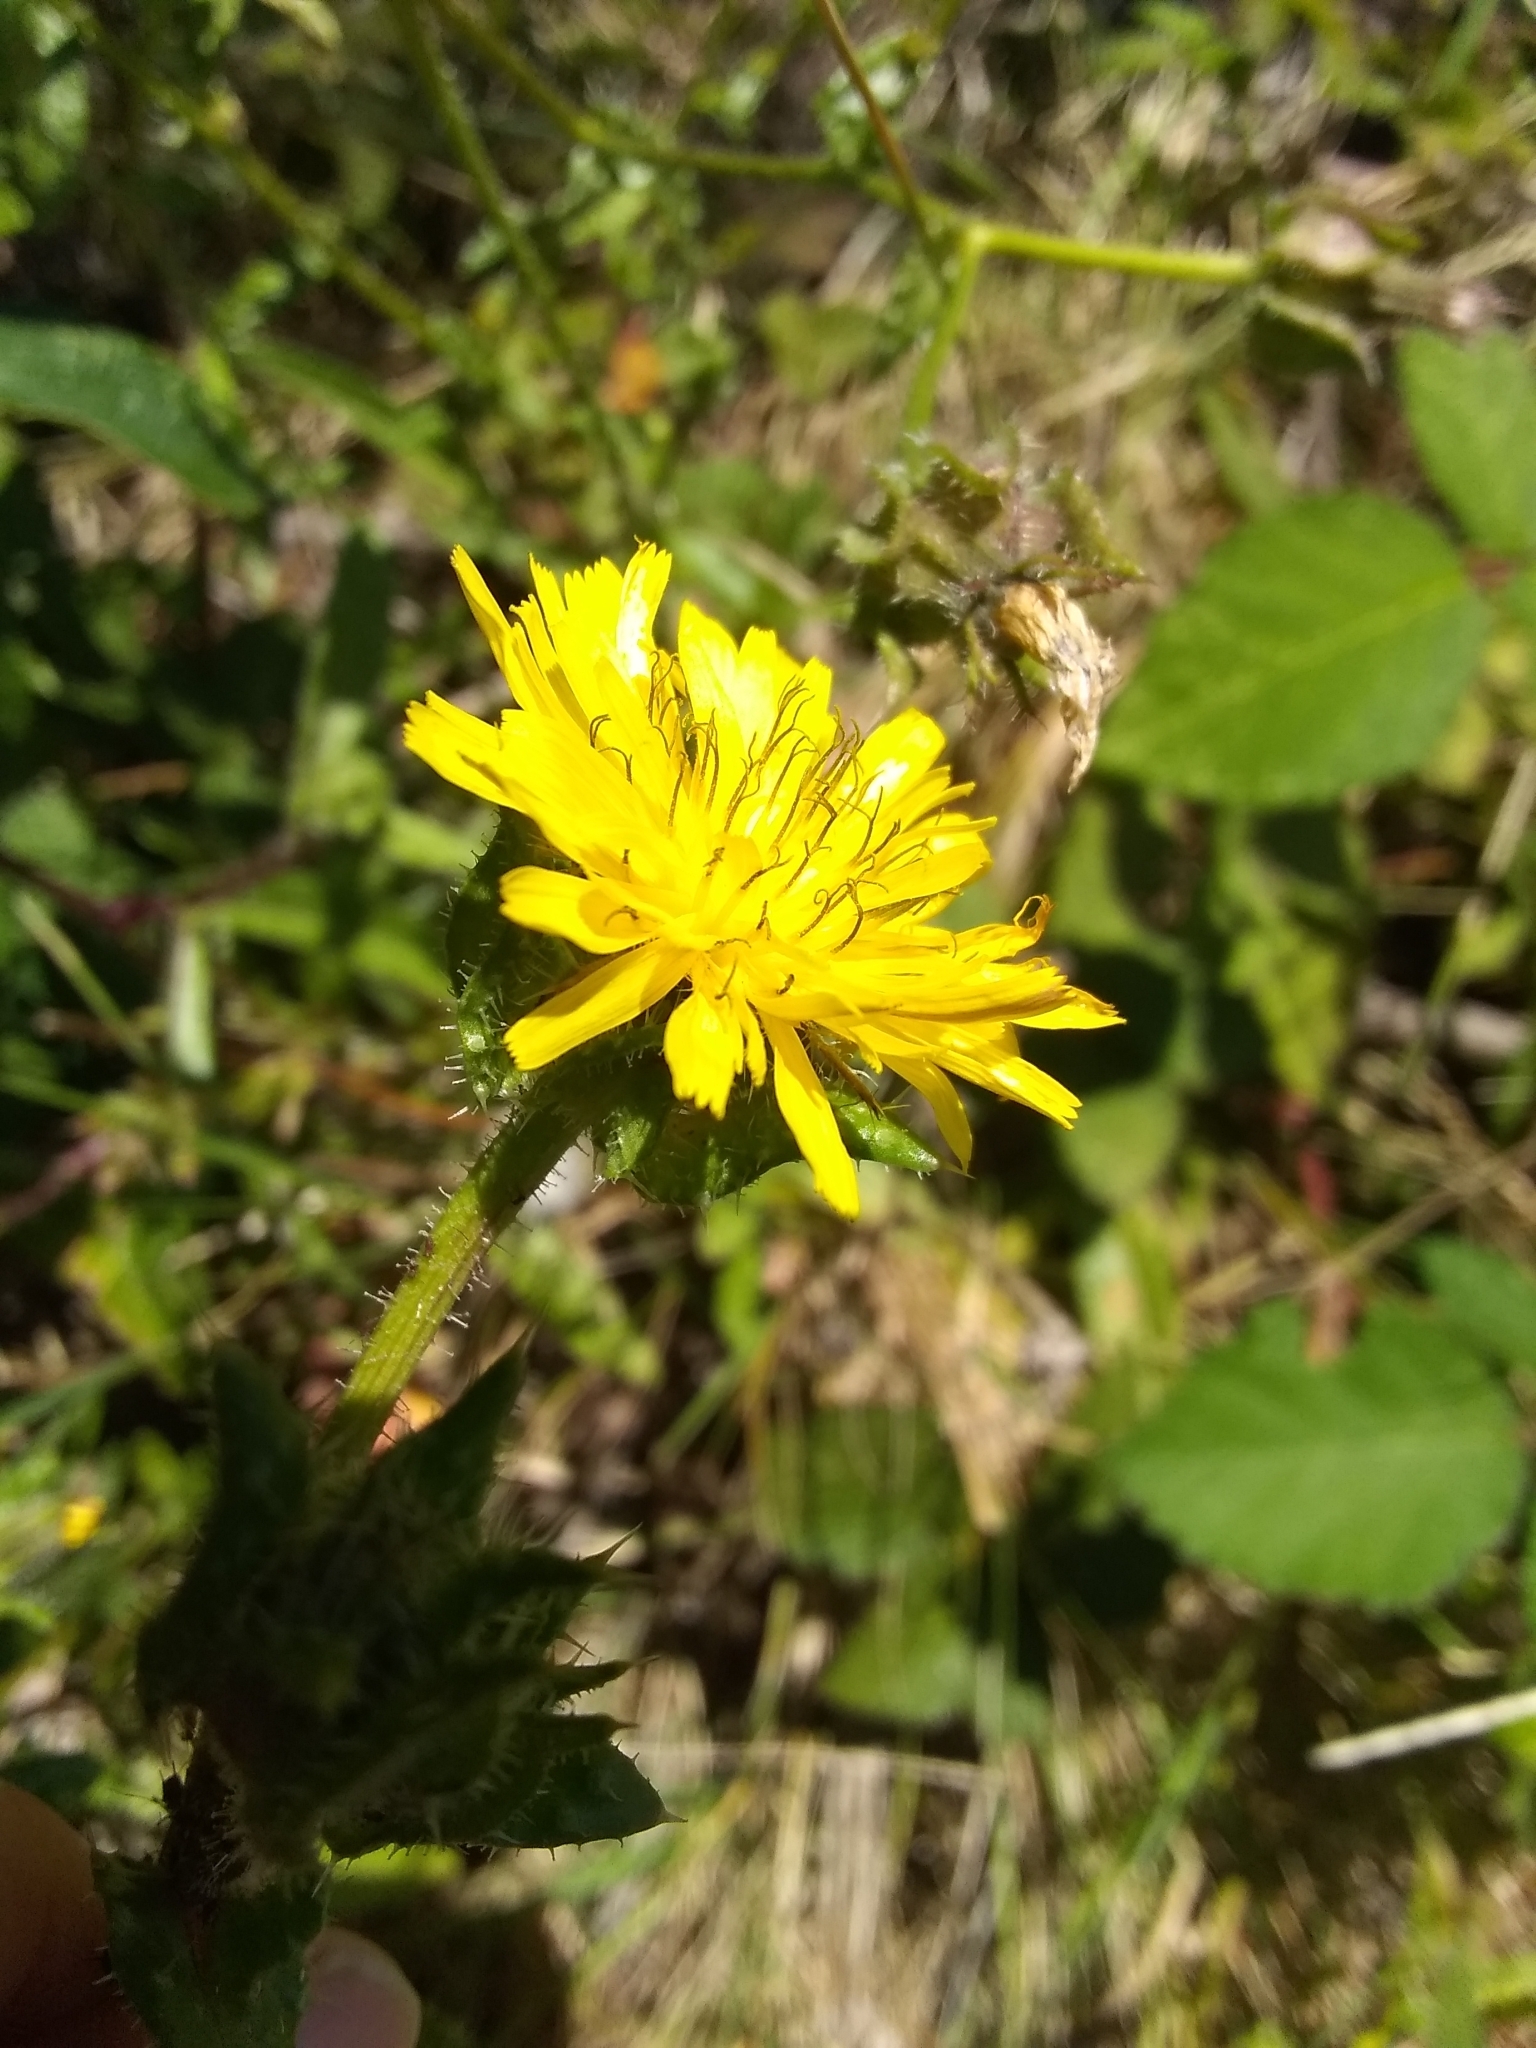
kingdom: Plantae
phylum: Tracheophyta
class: Magnoliopsida
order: Asterales
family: Asteraceae
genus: Helminthotheca
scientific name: Helminthotheca echioides
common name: Ox-tongue
